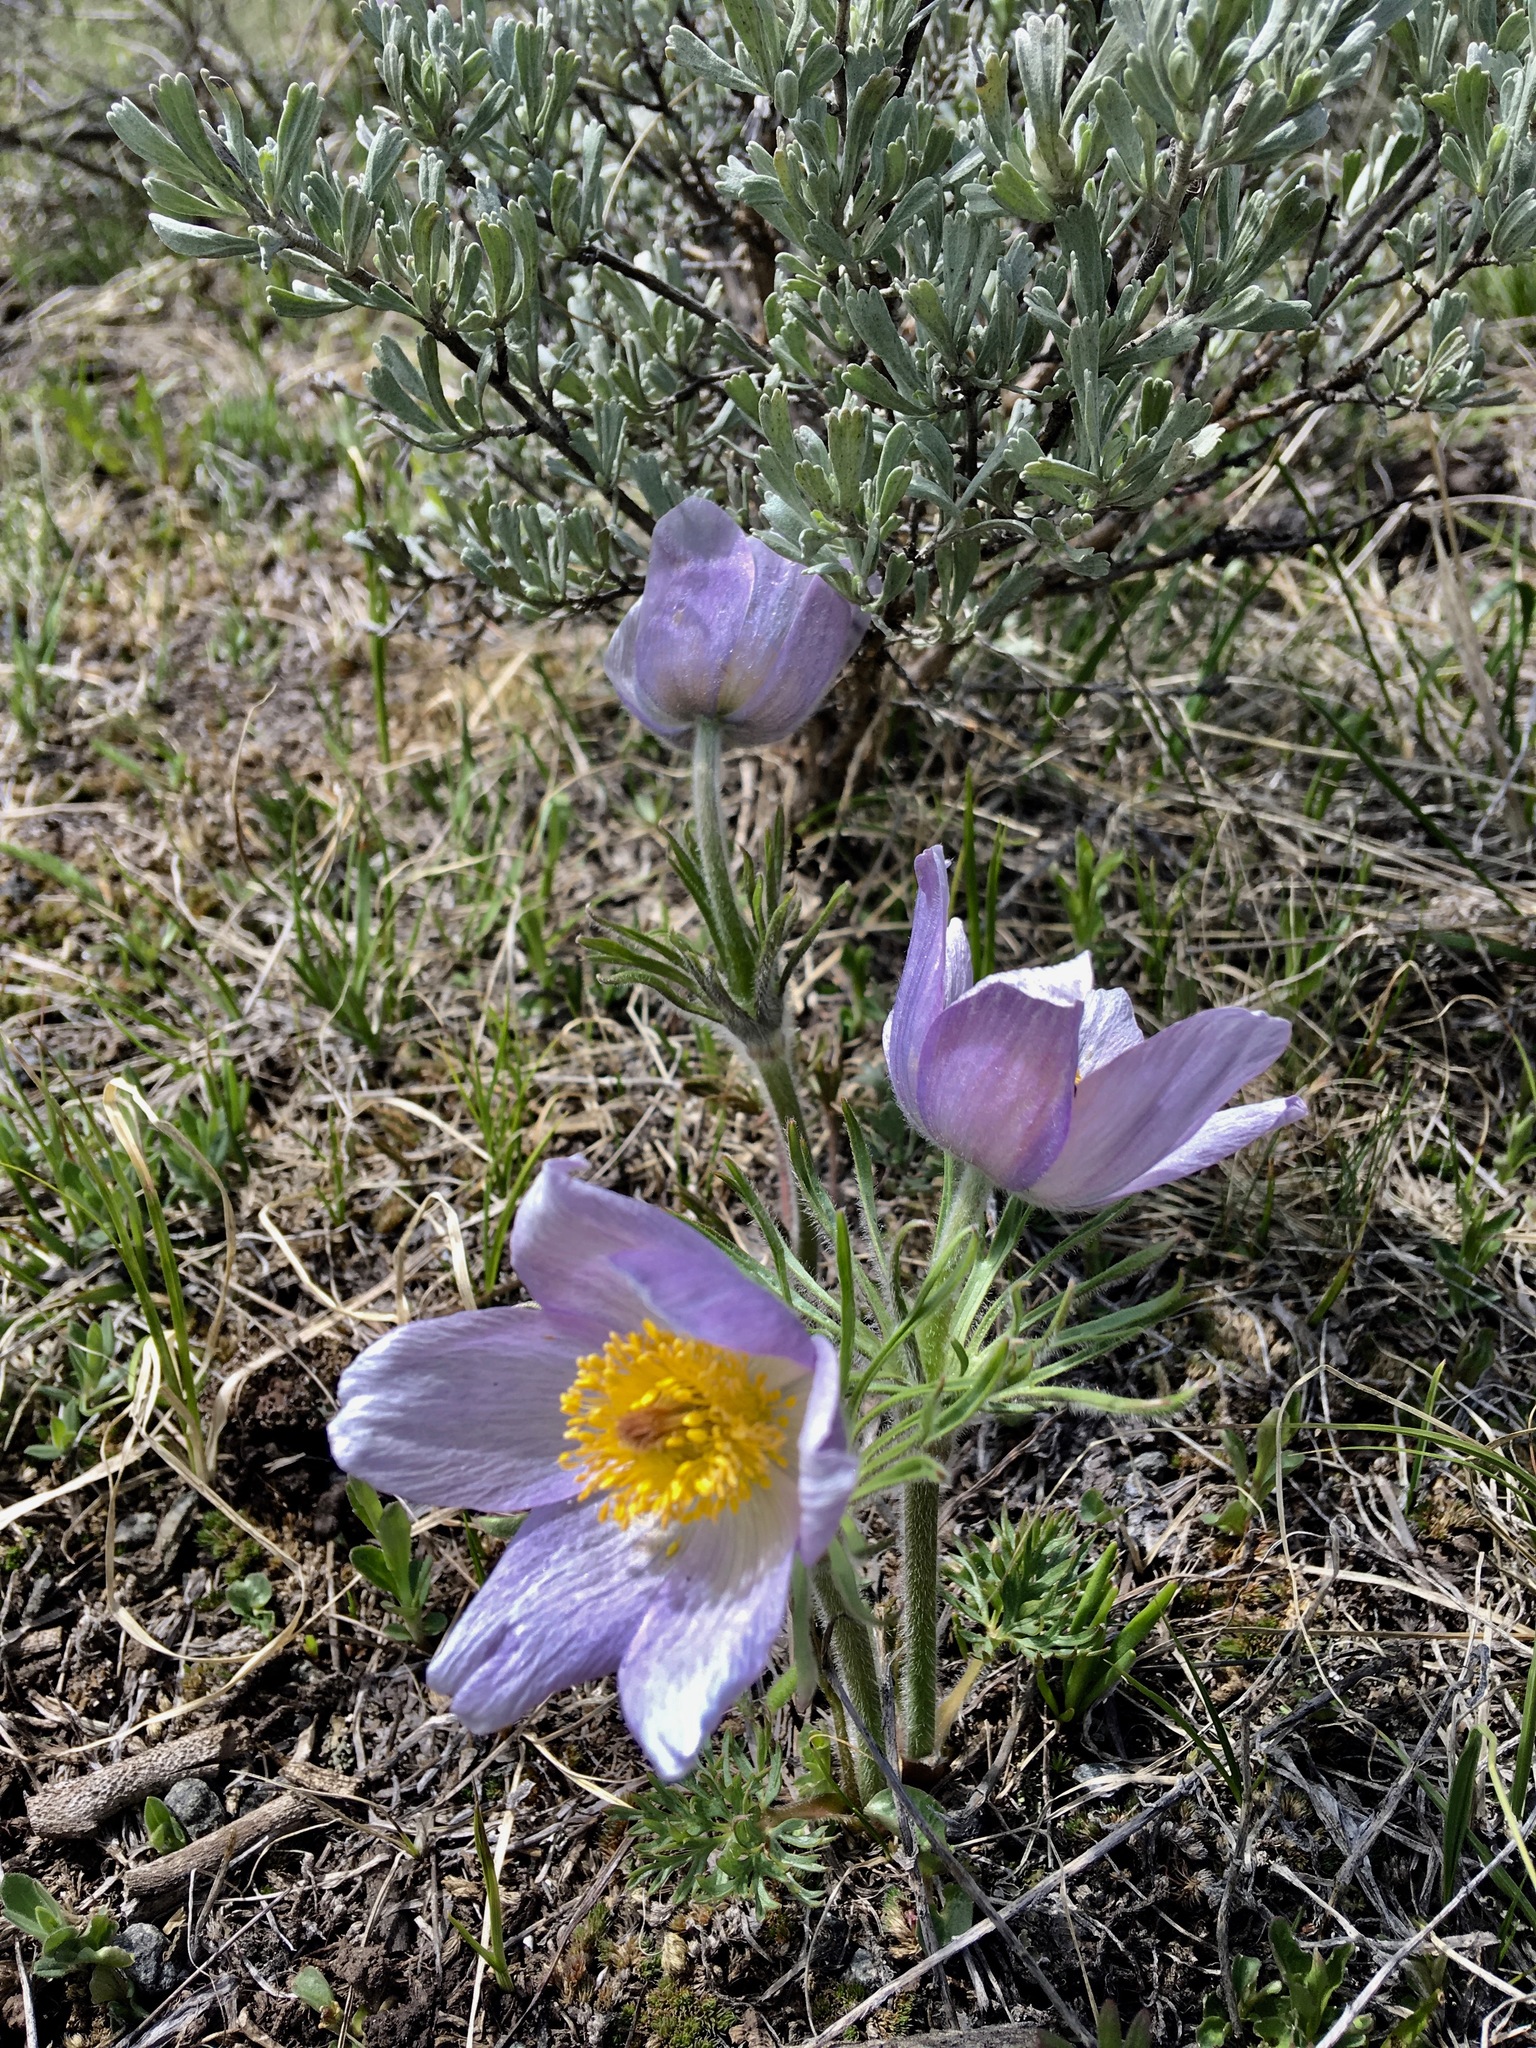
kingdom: Plantae
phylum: Tracheophyta
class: Magnoliopsida
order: Ranunculales
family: Ranunculaceae
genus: Pulsatilla
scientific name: Pulsatilla nuttalliana
